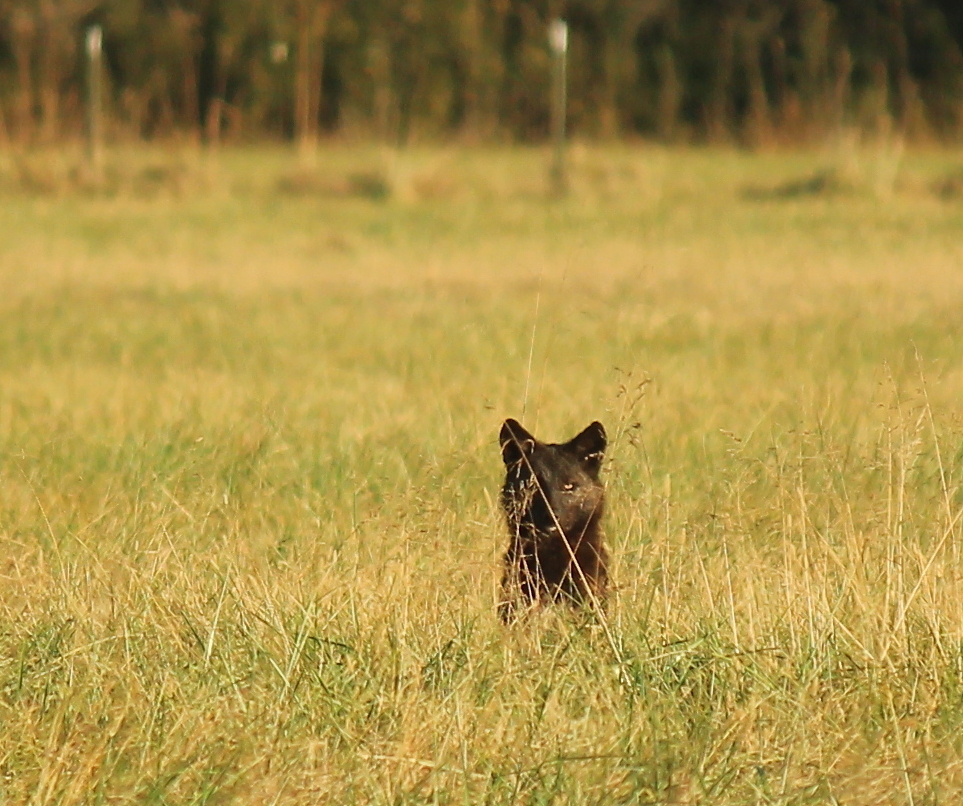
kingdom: Animalia
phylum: Chordata
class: Mammalia
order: Carnivora
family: Canidae
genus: Canis
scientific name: Canis latrans
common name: Coyote
